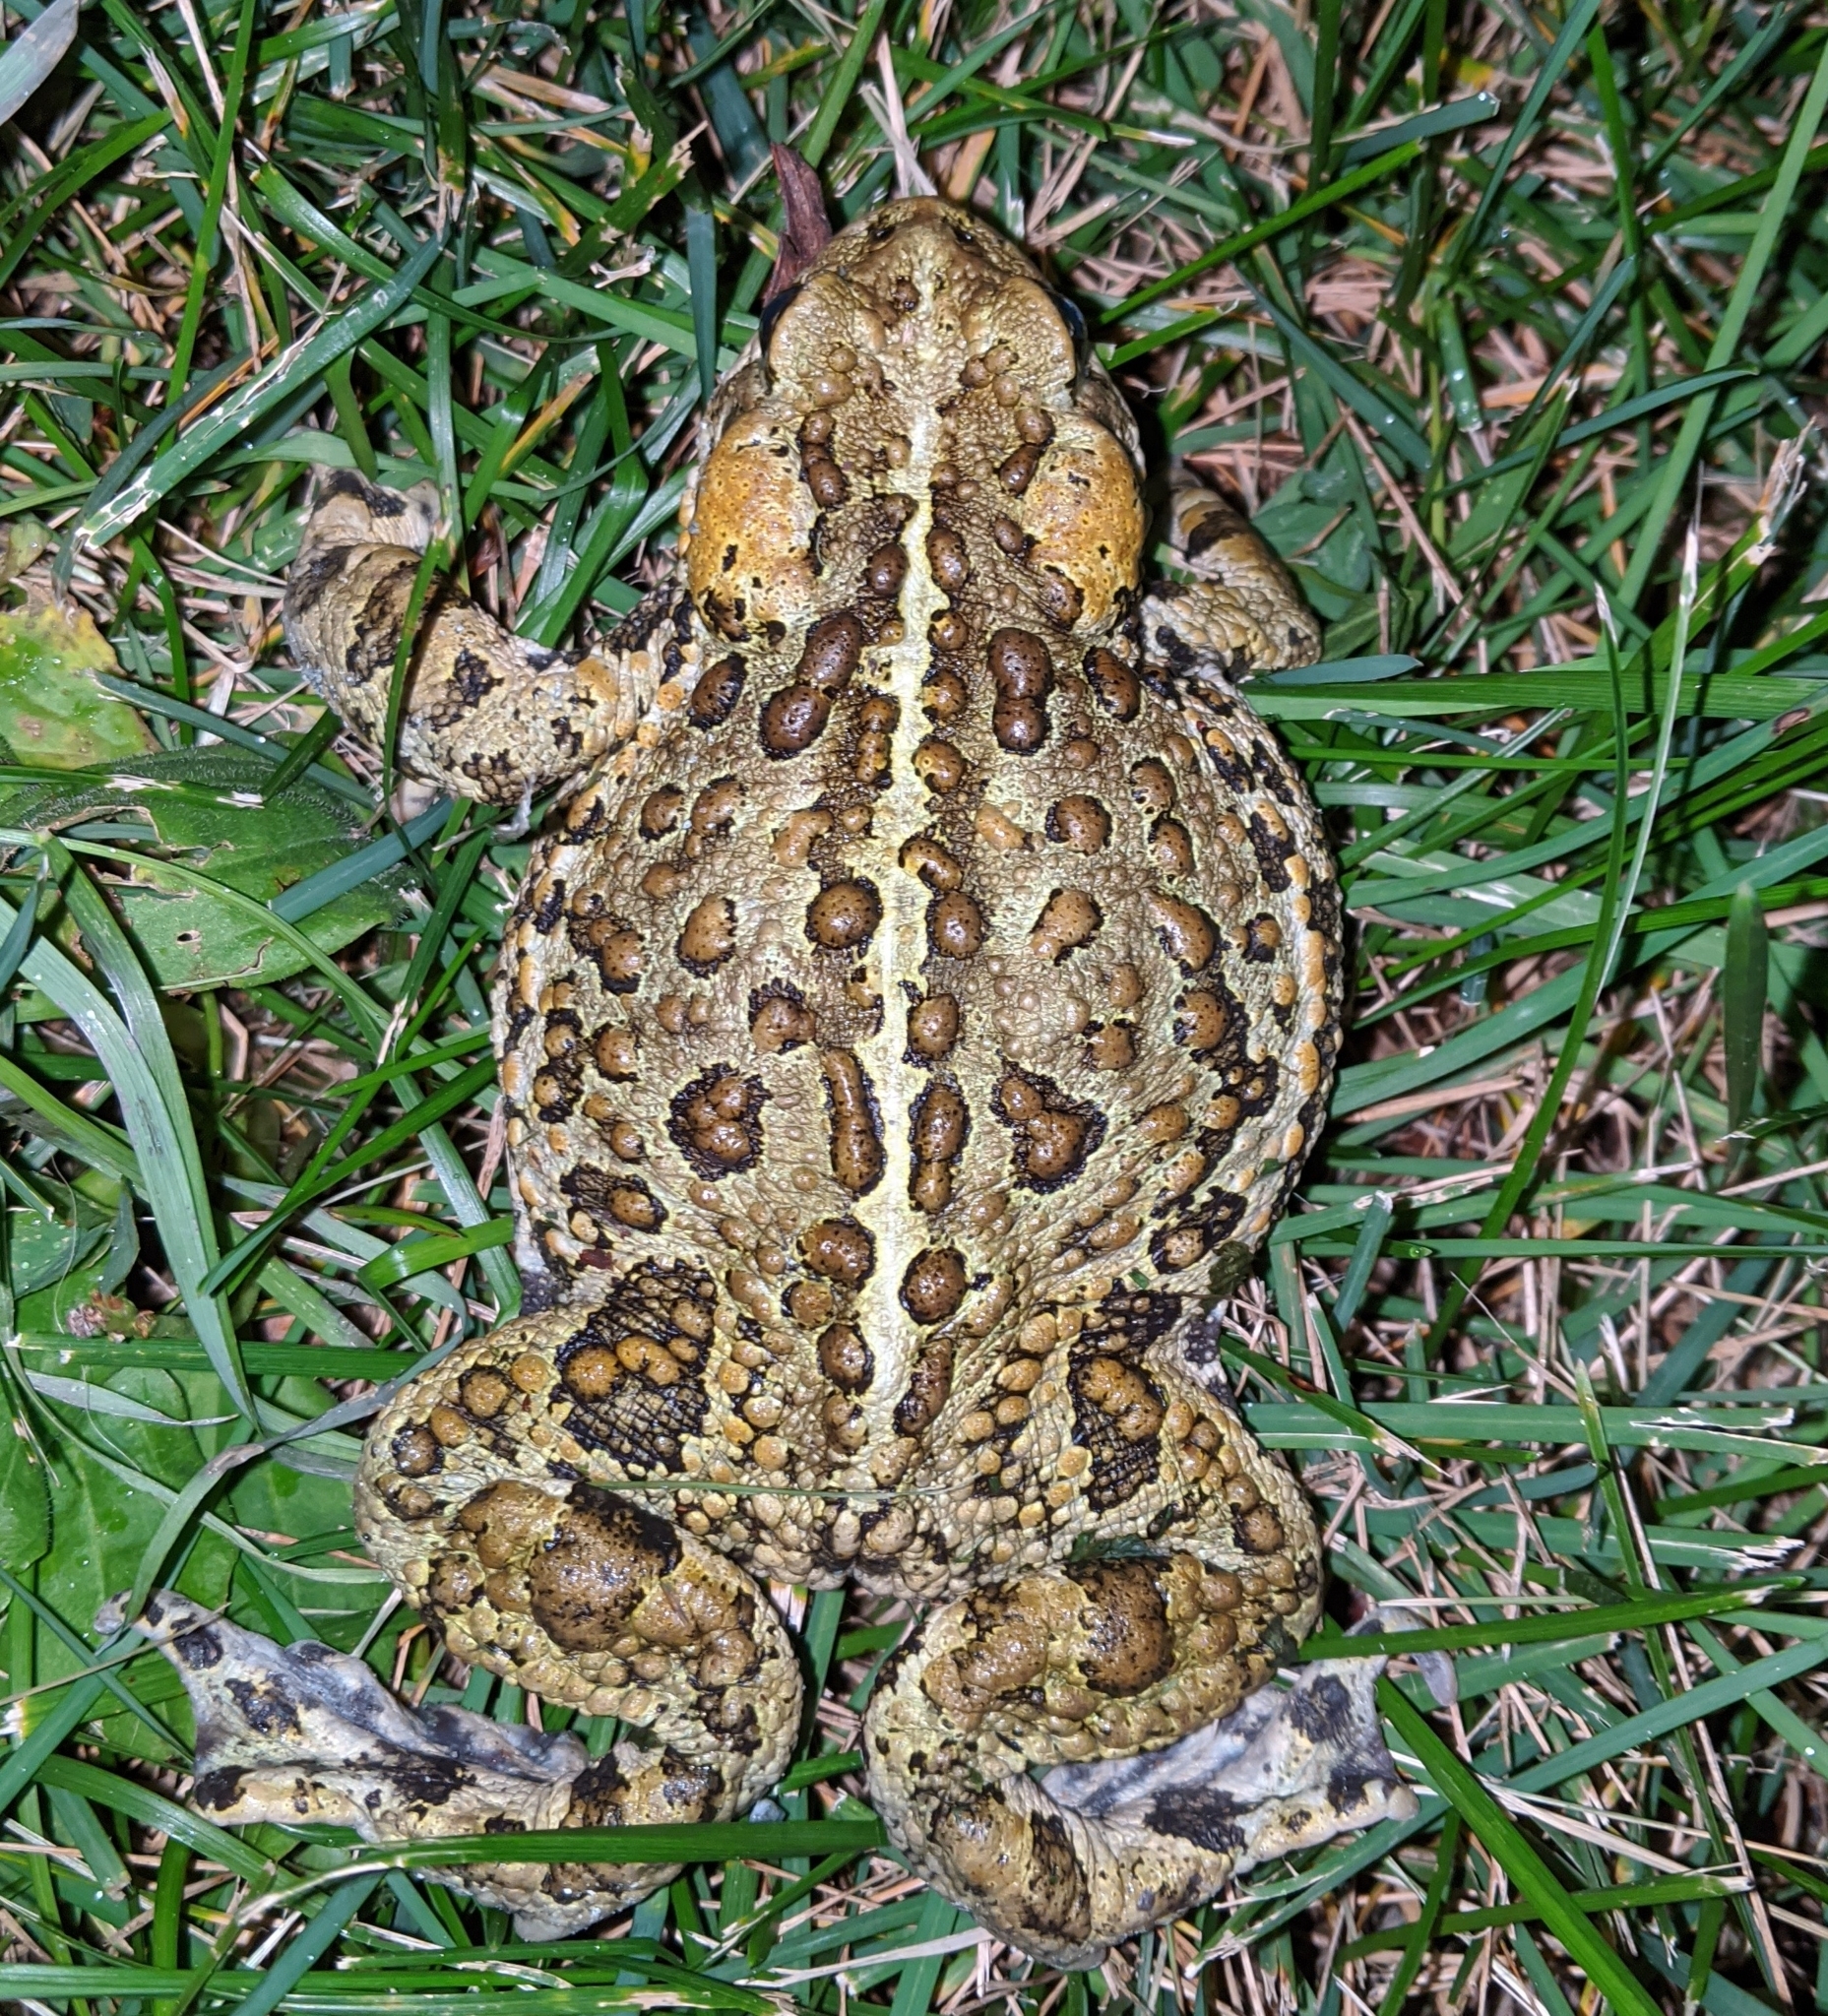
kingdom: Animalia
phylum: Chordata
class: Amphibia
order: Anura
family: Bufonidae
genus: Anaxyrus
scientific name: Anaxyrus boreas
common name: Western toad
